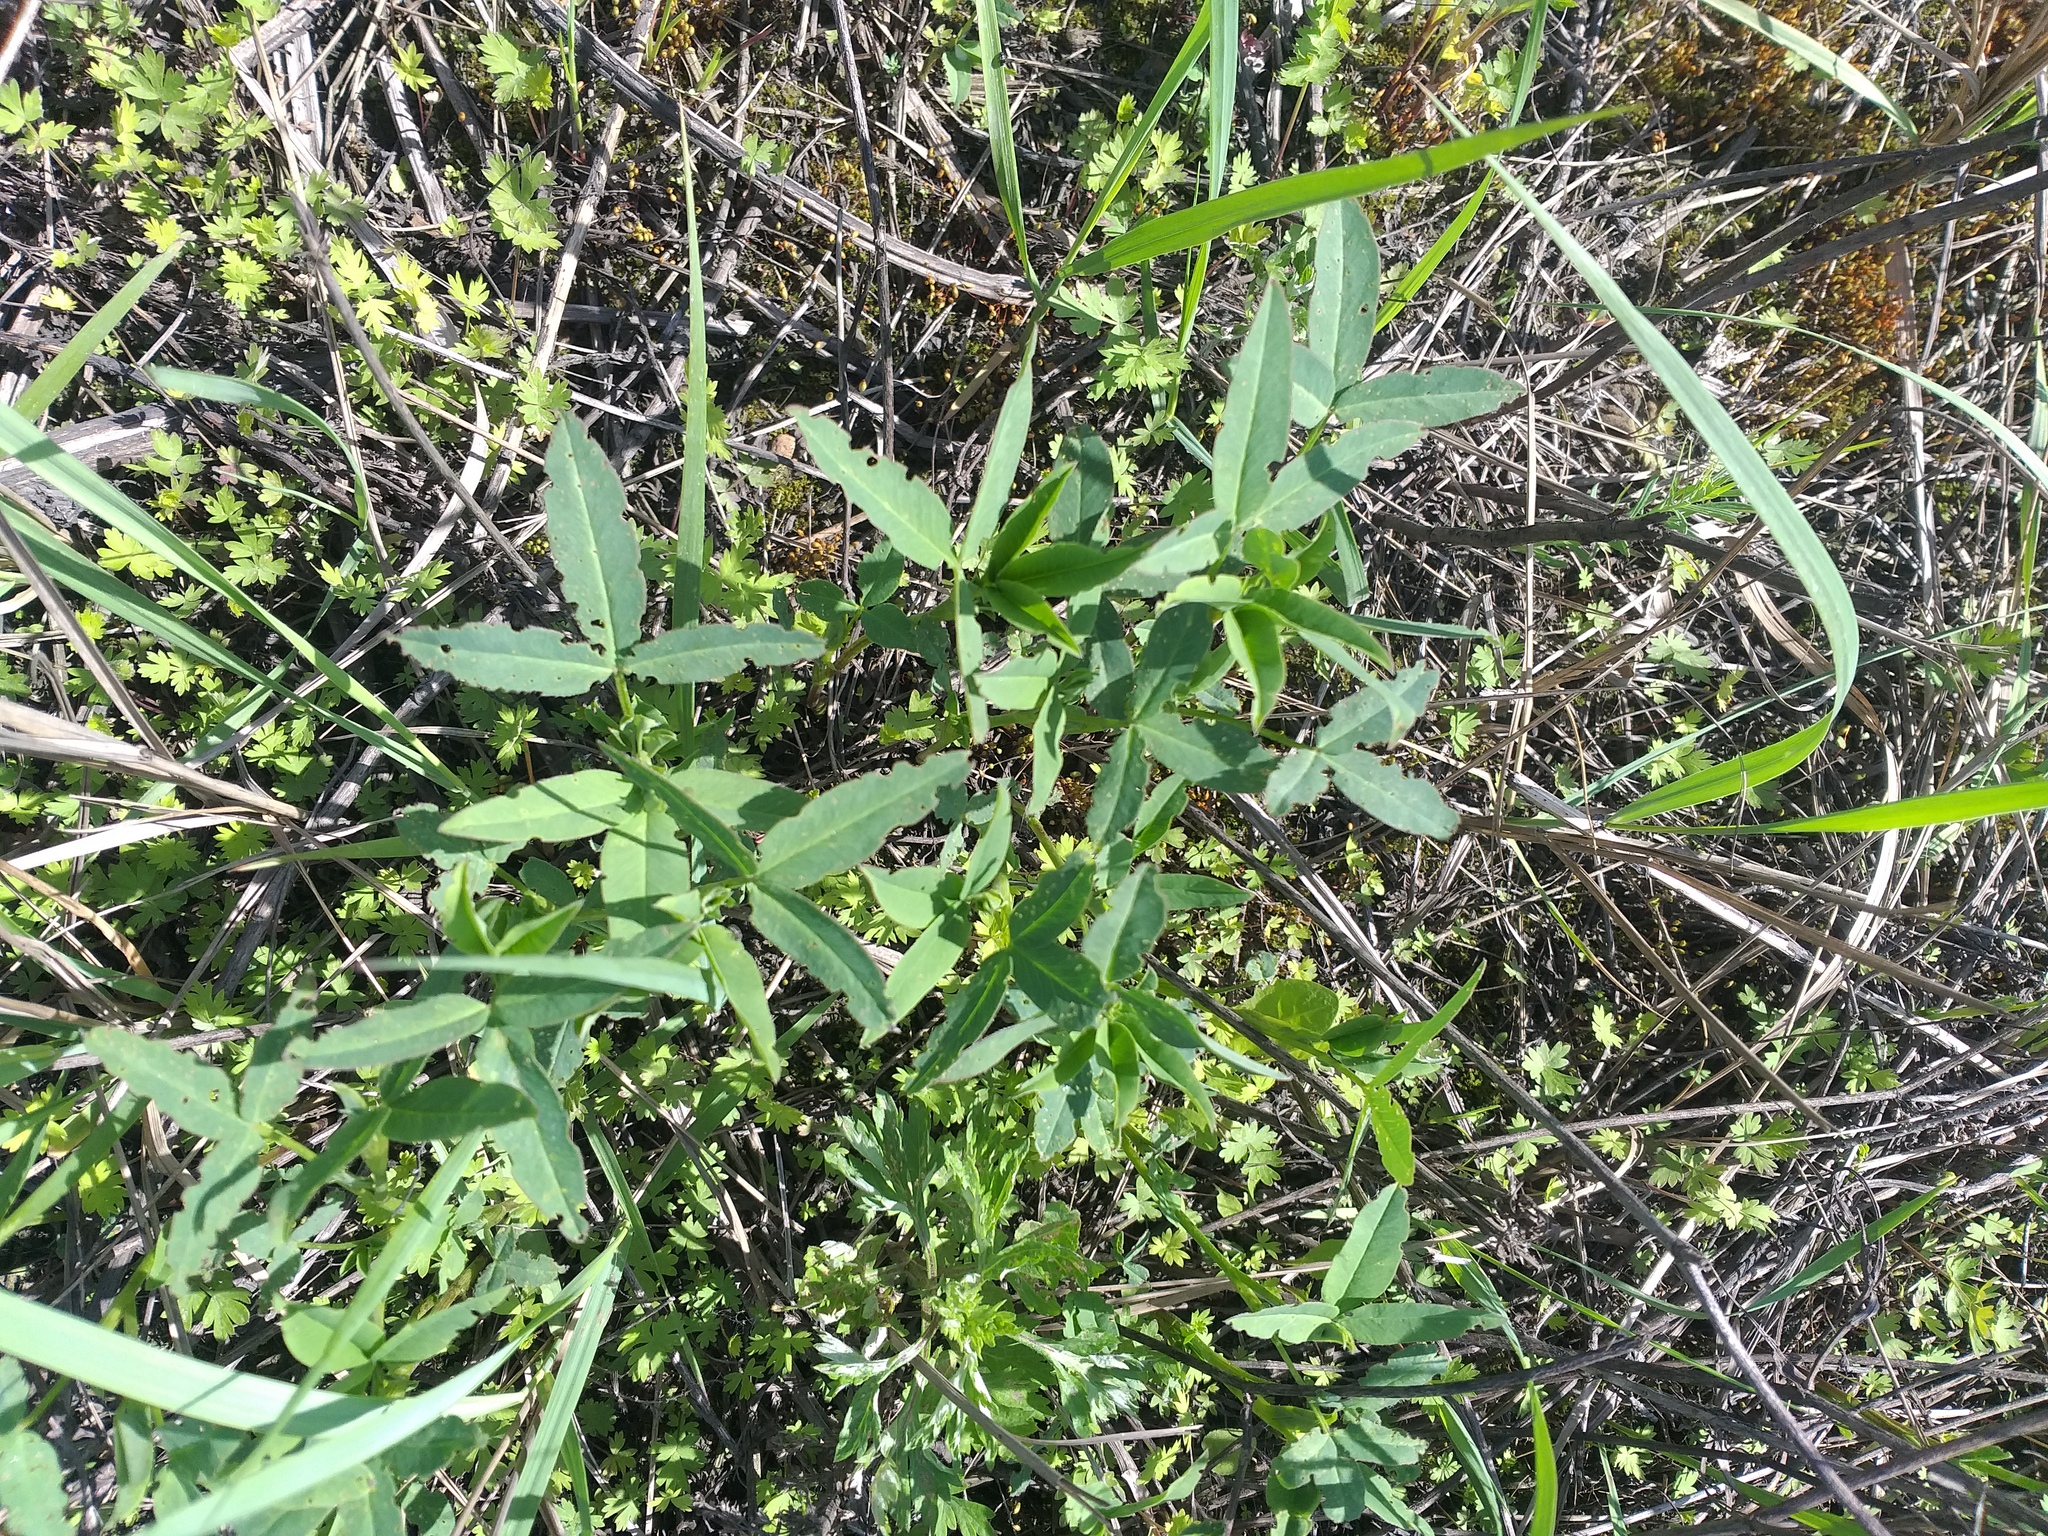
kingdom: Plantae
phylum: Tracheophyta
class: Magnoliopsida
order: Fabales
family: Fabaceae
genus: Trifolium
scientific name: Trifolium medium
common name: Zigzag clover
